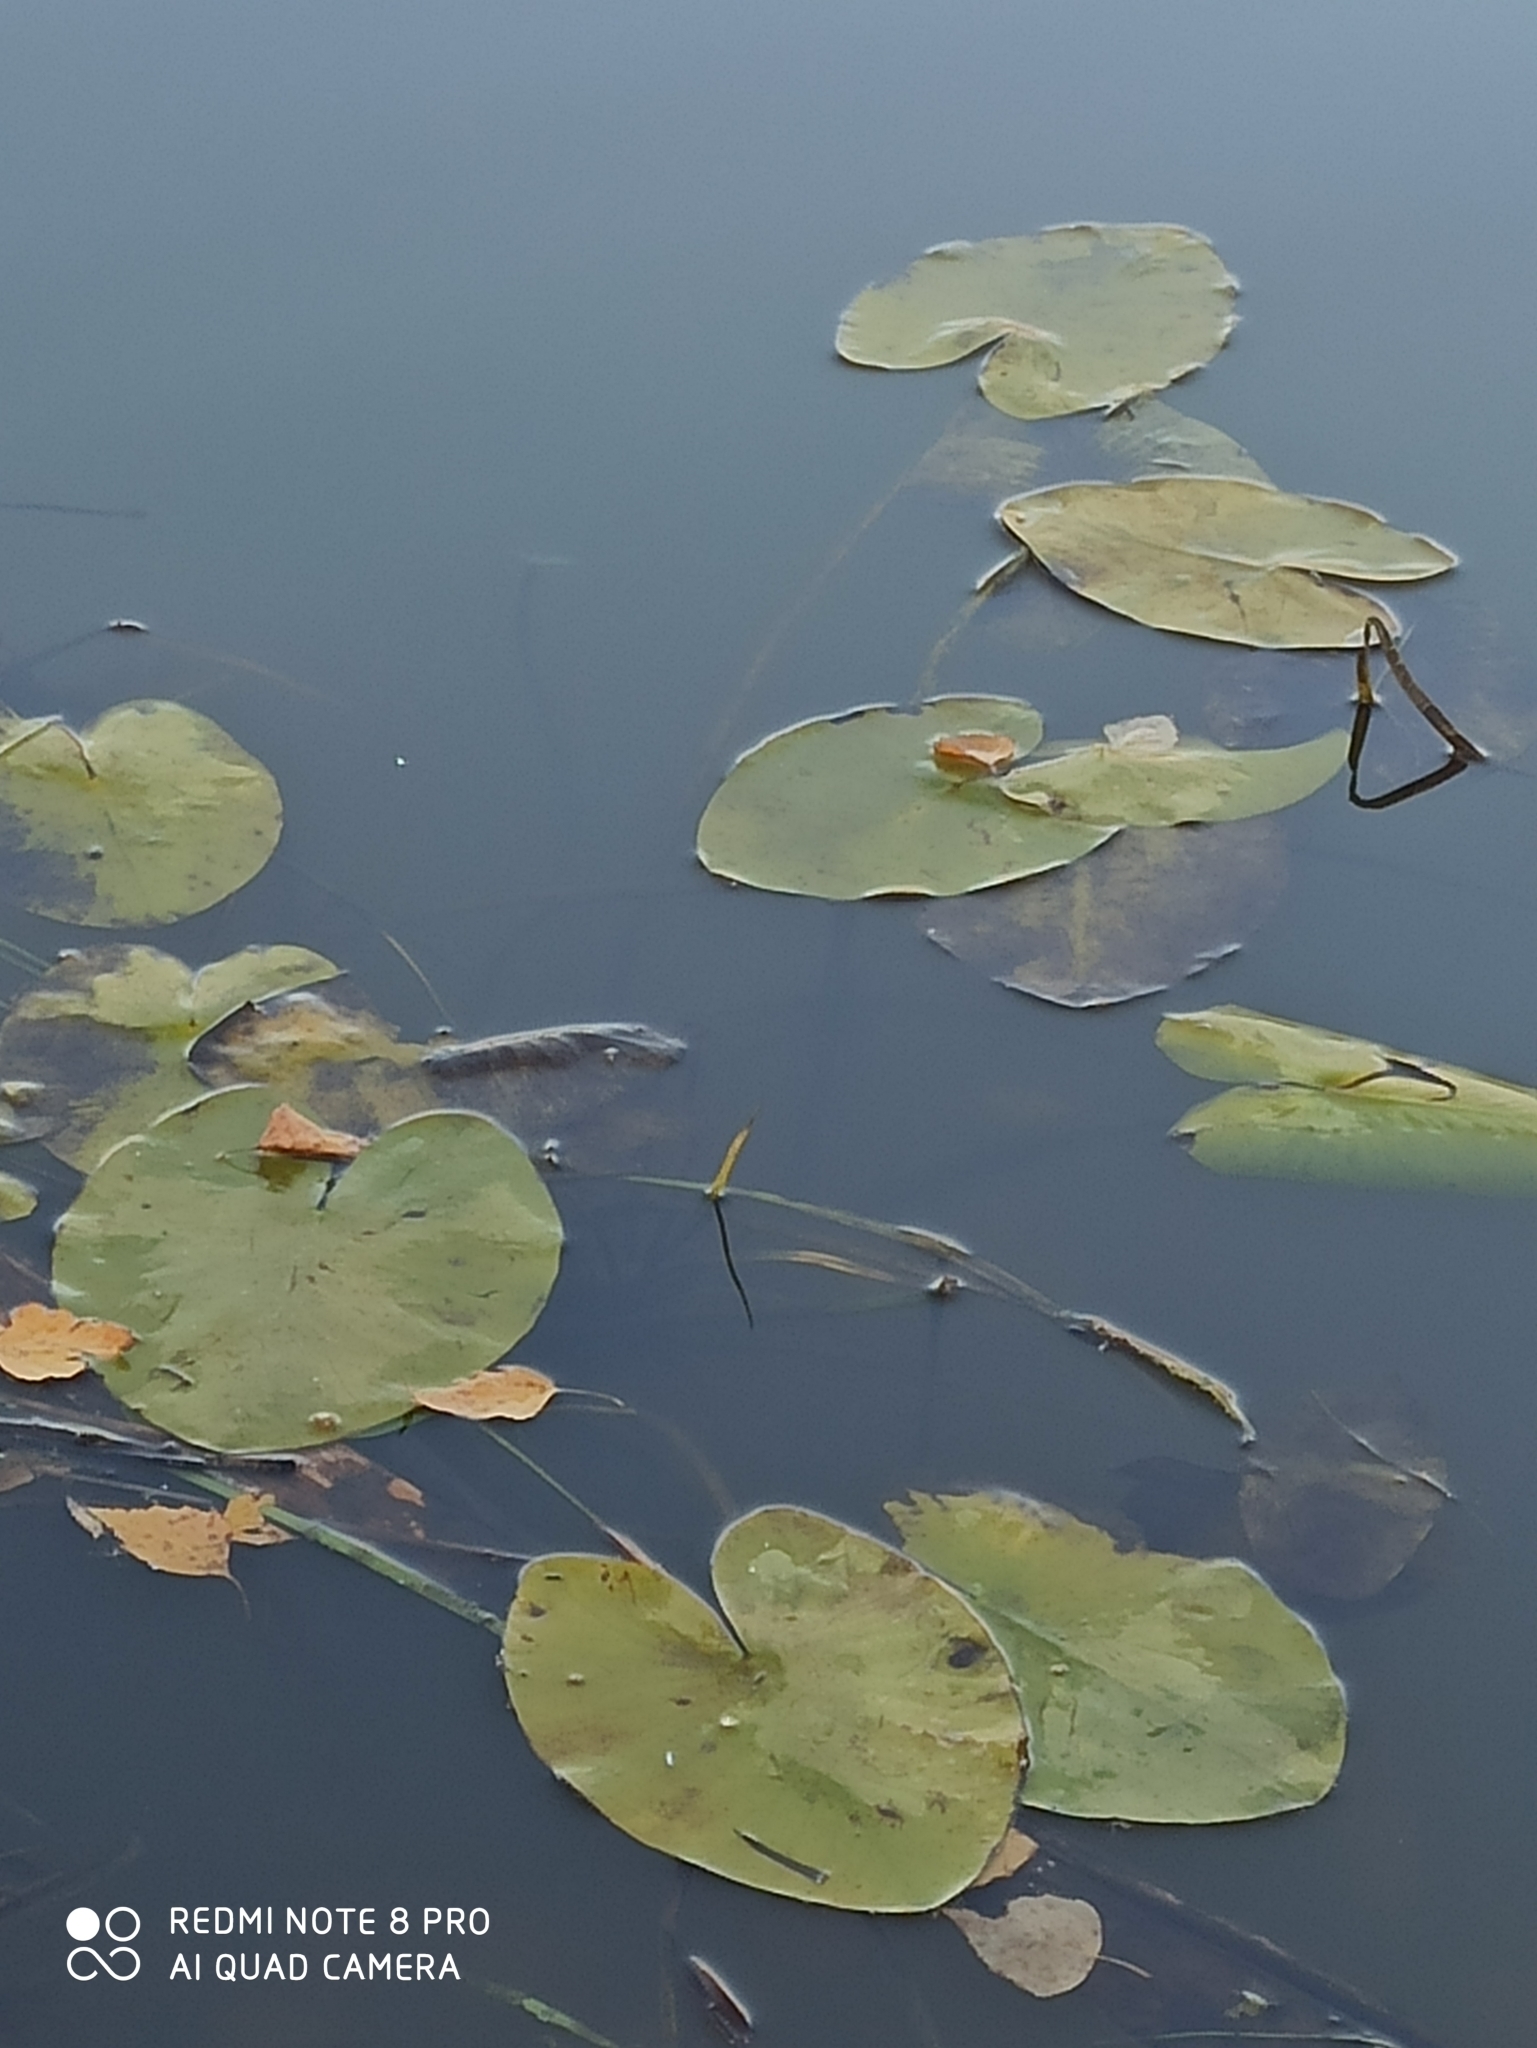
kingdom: Plantae
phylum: Tracheophyta
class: Magnoliopsida
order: Nymphaeales
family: Nymphaeaceae
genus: Nuphar
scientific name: Nuphar lutea
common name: Yellow water-lily
